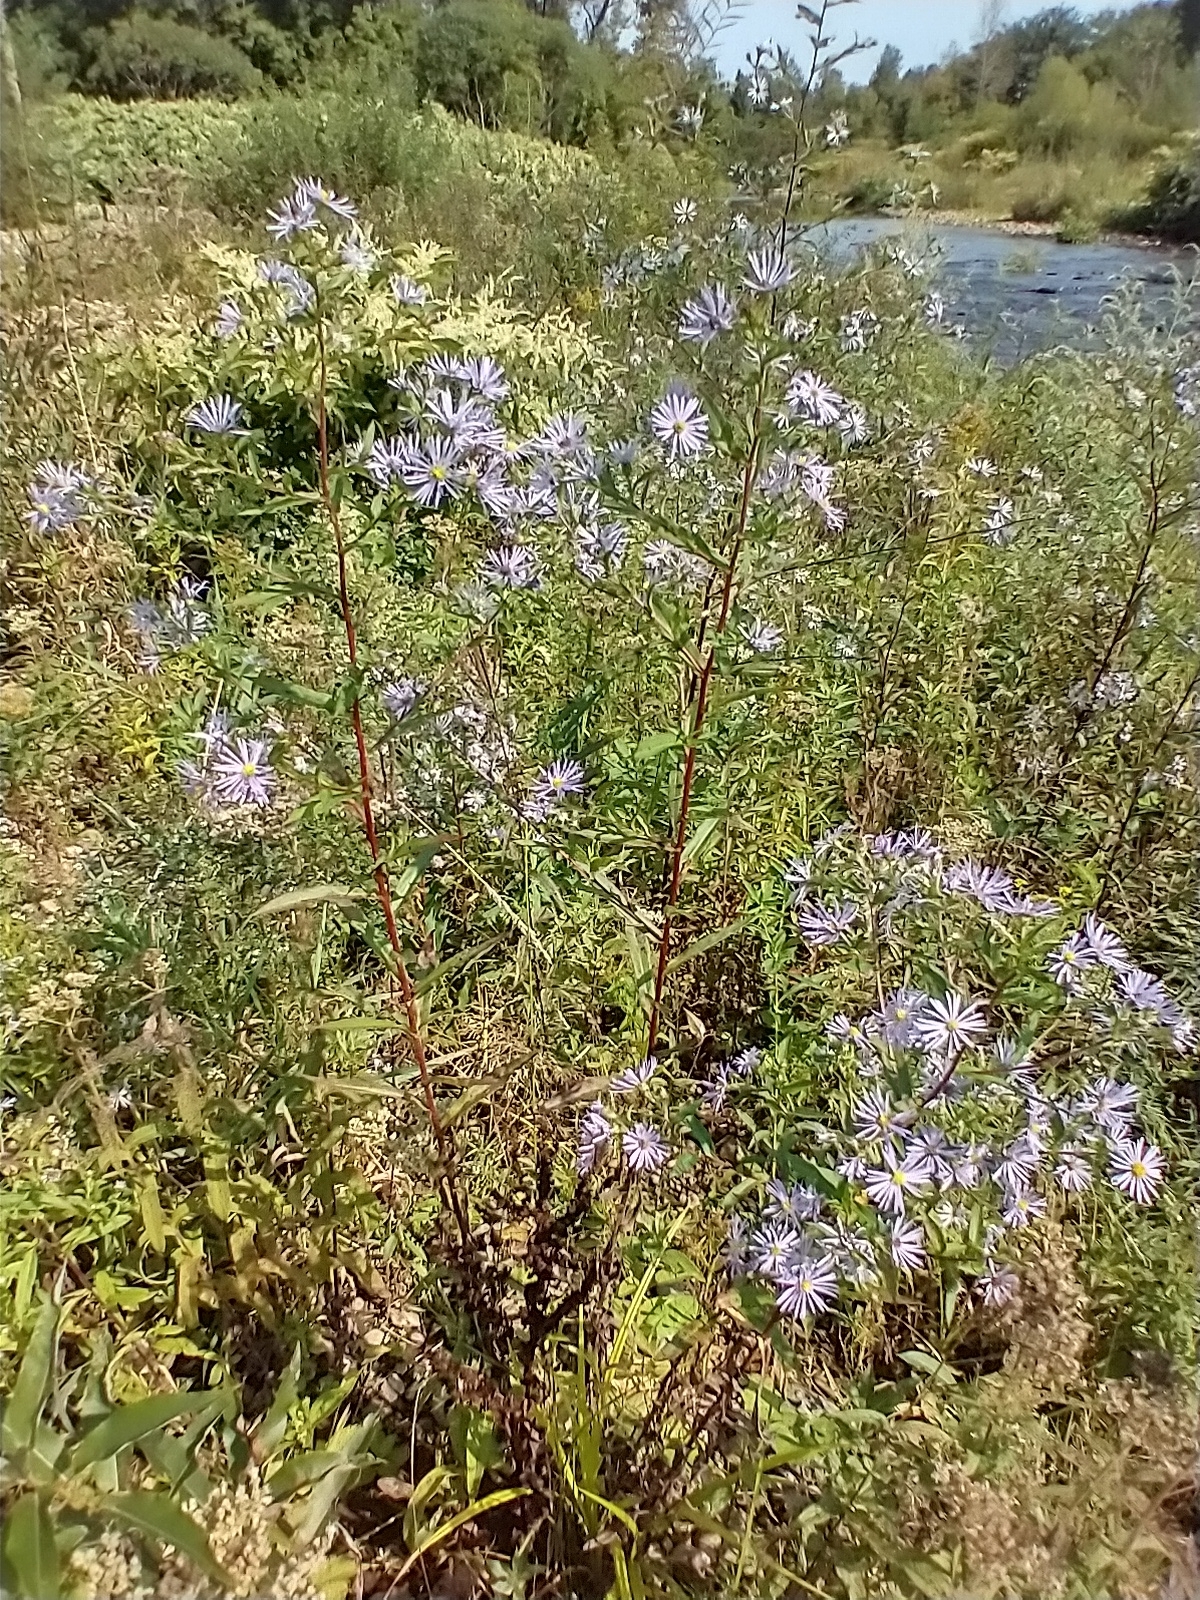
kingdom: Plantae
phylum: Tracheophyta
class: Magnoliopsida
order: Asterales
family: Asteraceae
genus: Symphyotrichum
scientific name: Symphyotrichum puniceum
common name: Bog aster
